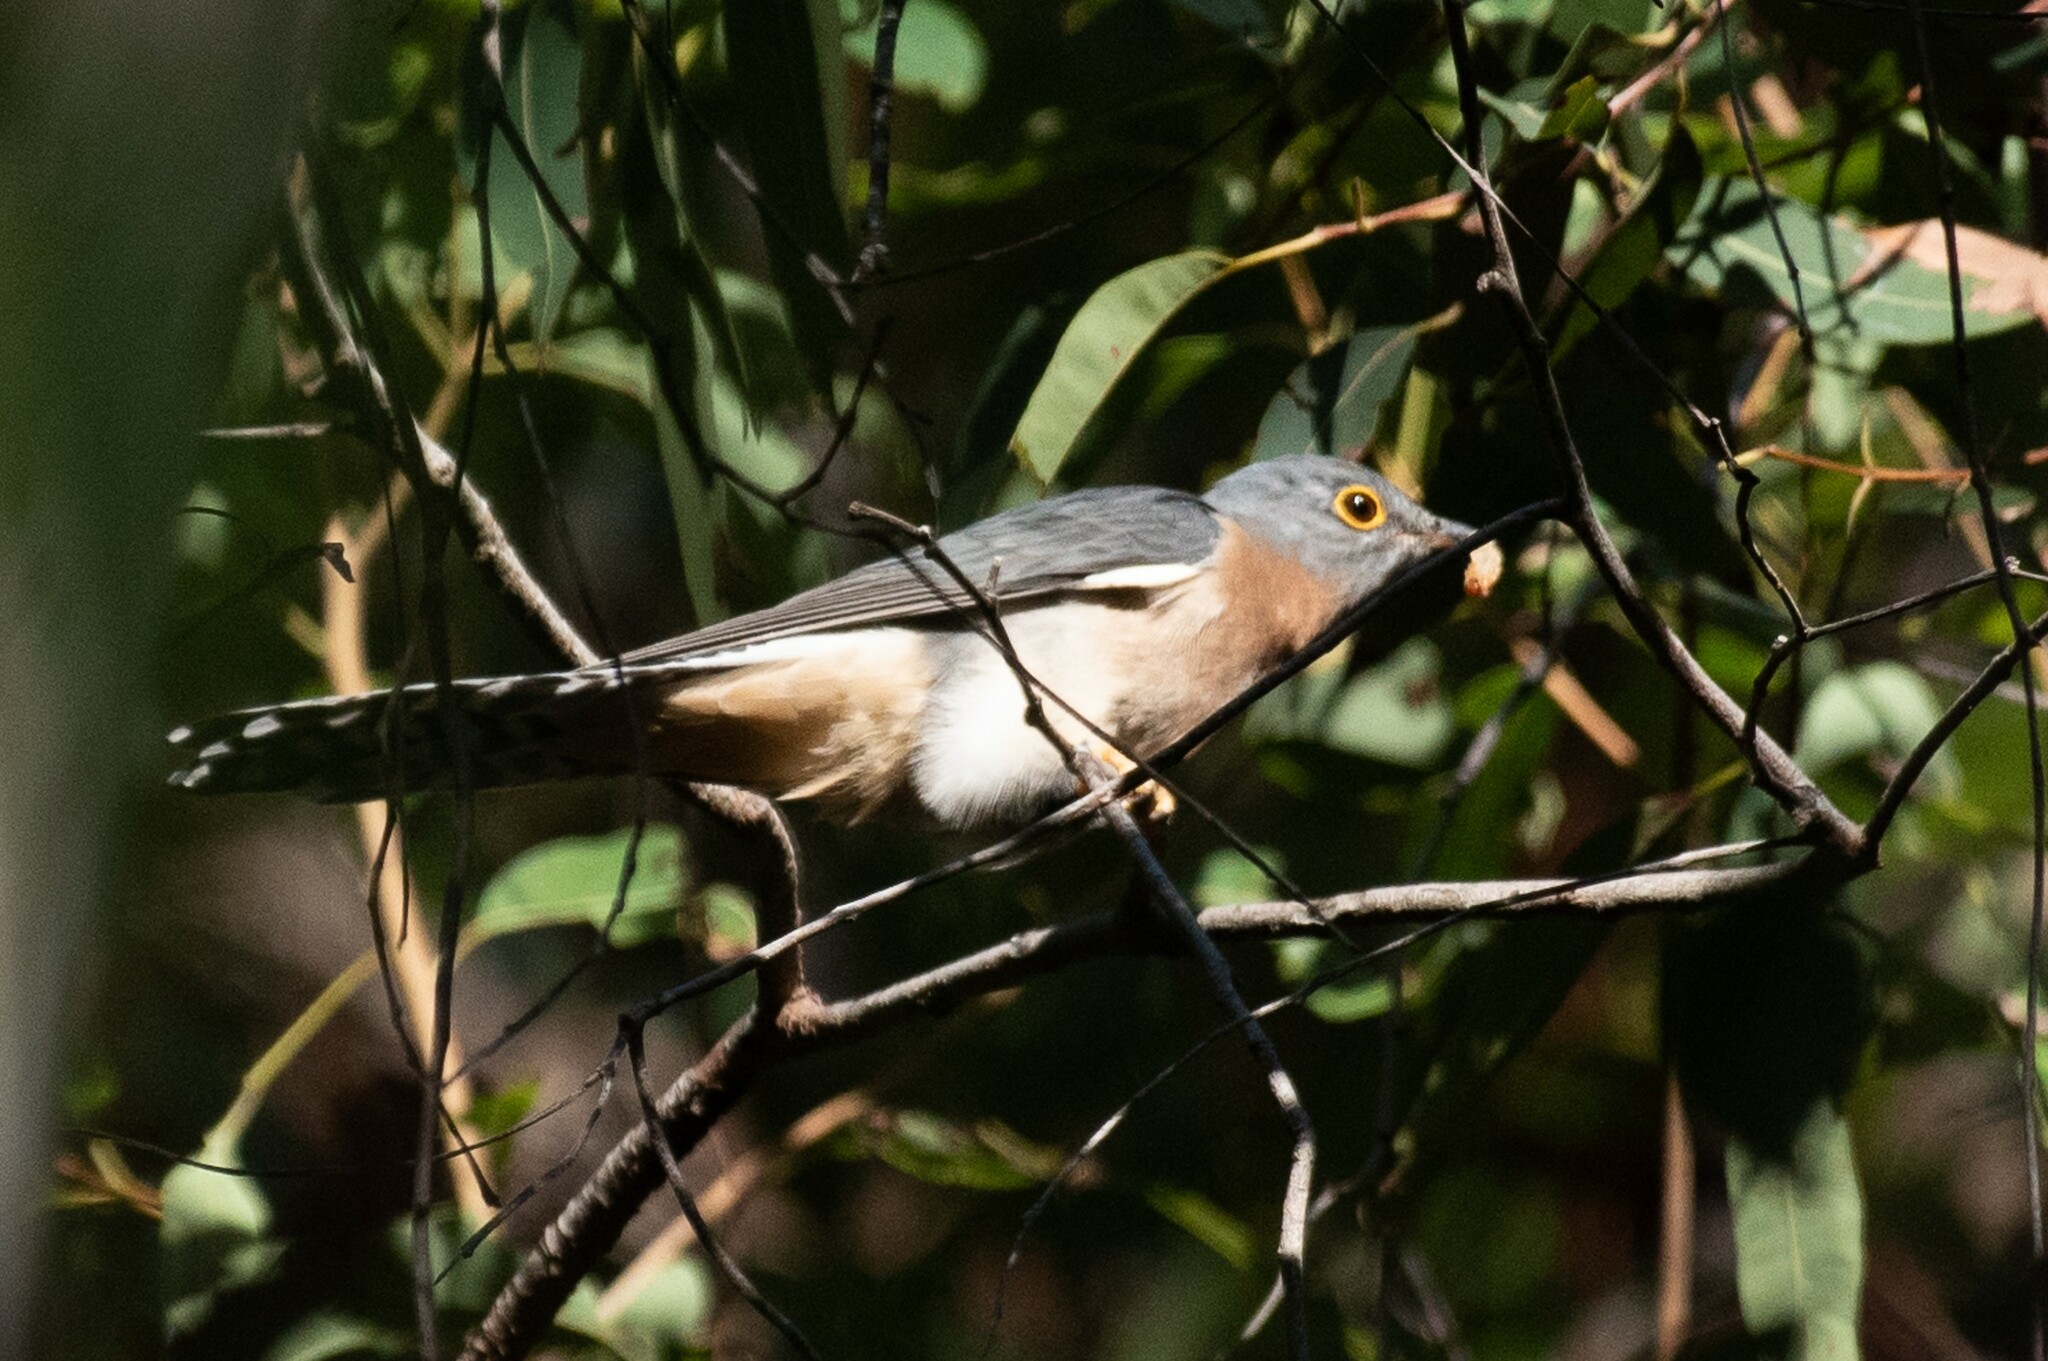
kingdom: Animalia
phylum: Chordata
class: Aves
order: Cuculiformes
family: Cuculidae
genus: Cacomantis
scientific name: Cacomantis flabelliformis
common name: Fan-tailed cuckoo
